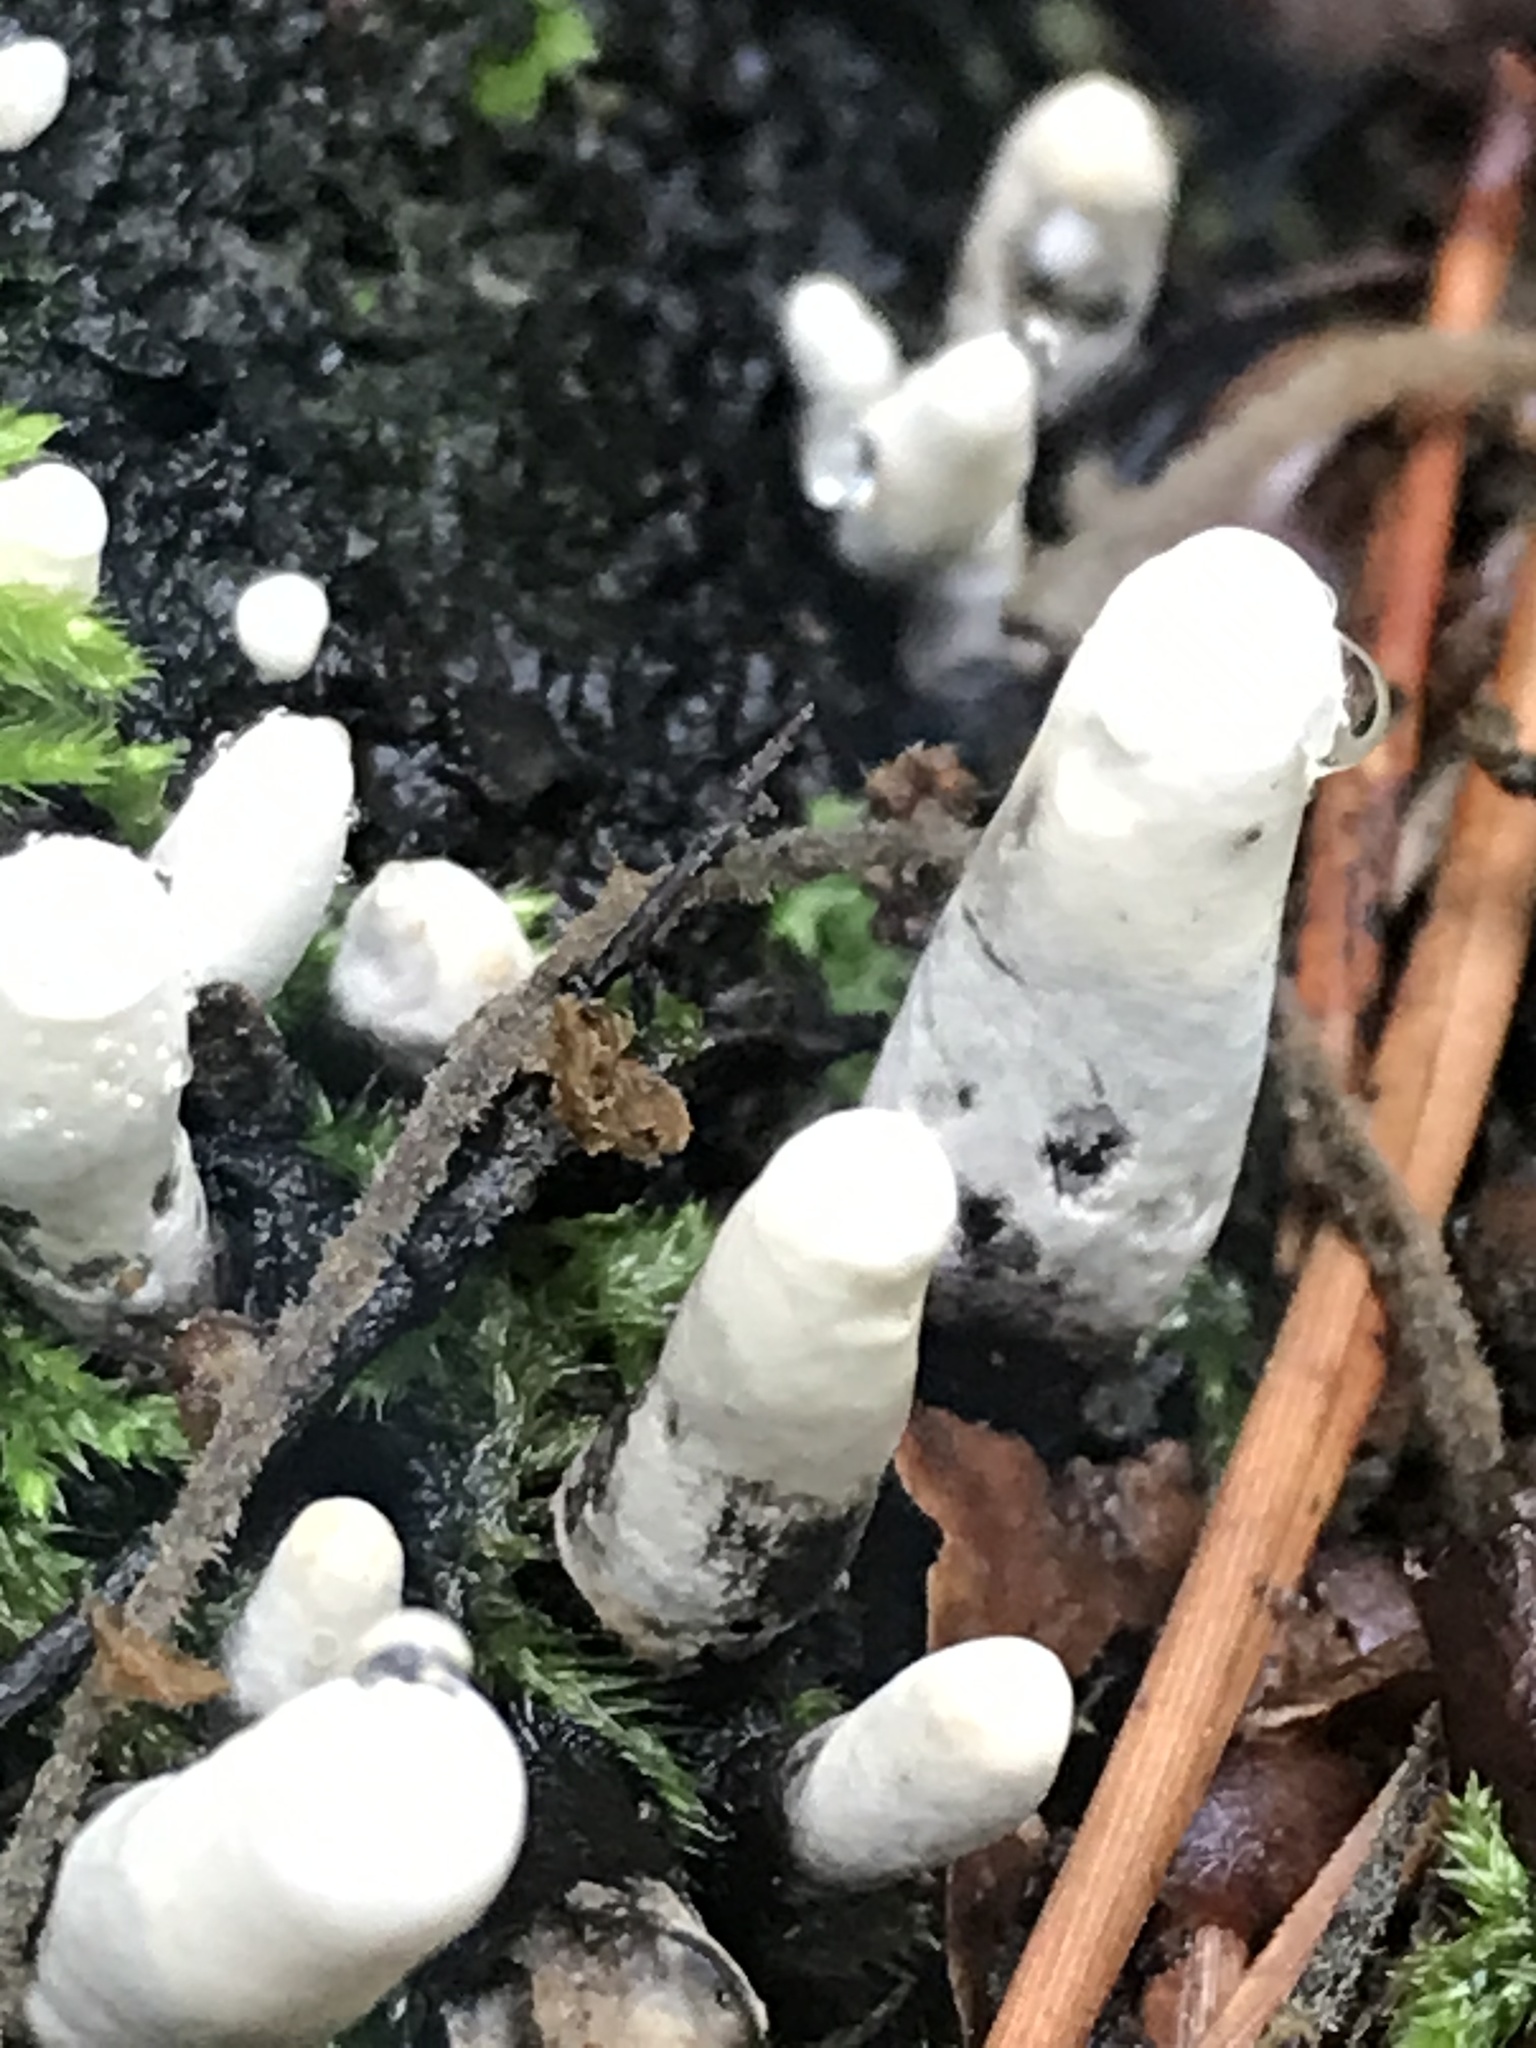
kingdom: Fungi
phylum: Ascomycota
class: Sordariomycetes
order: Xylariales
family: Xylariaceae
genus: Xylaria
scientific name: Xylaria polymorpha
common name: Dead man's fingers
